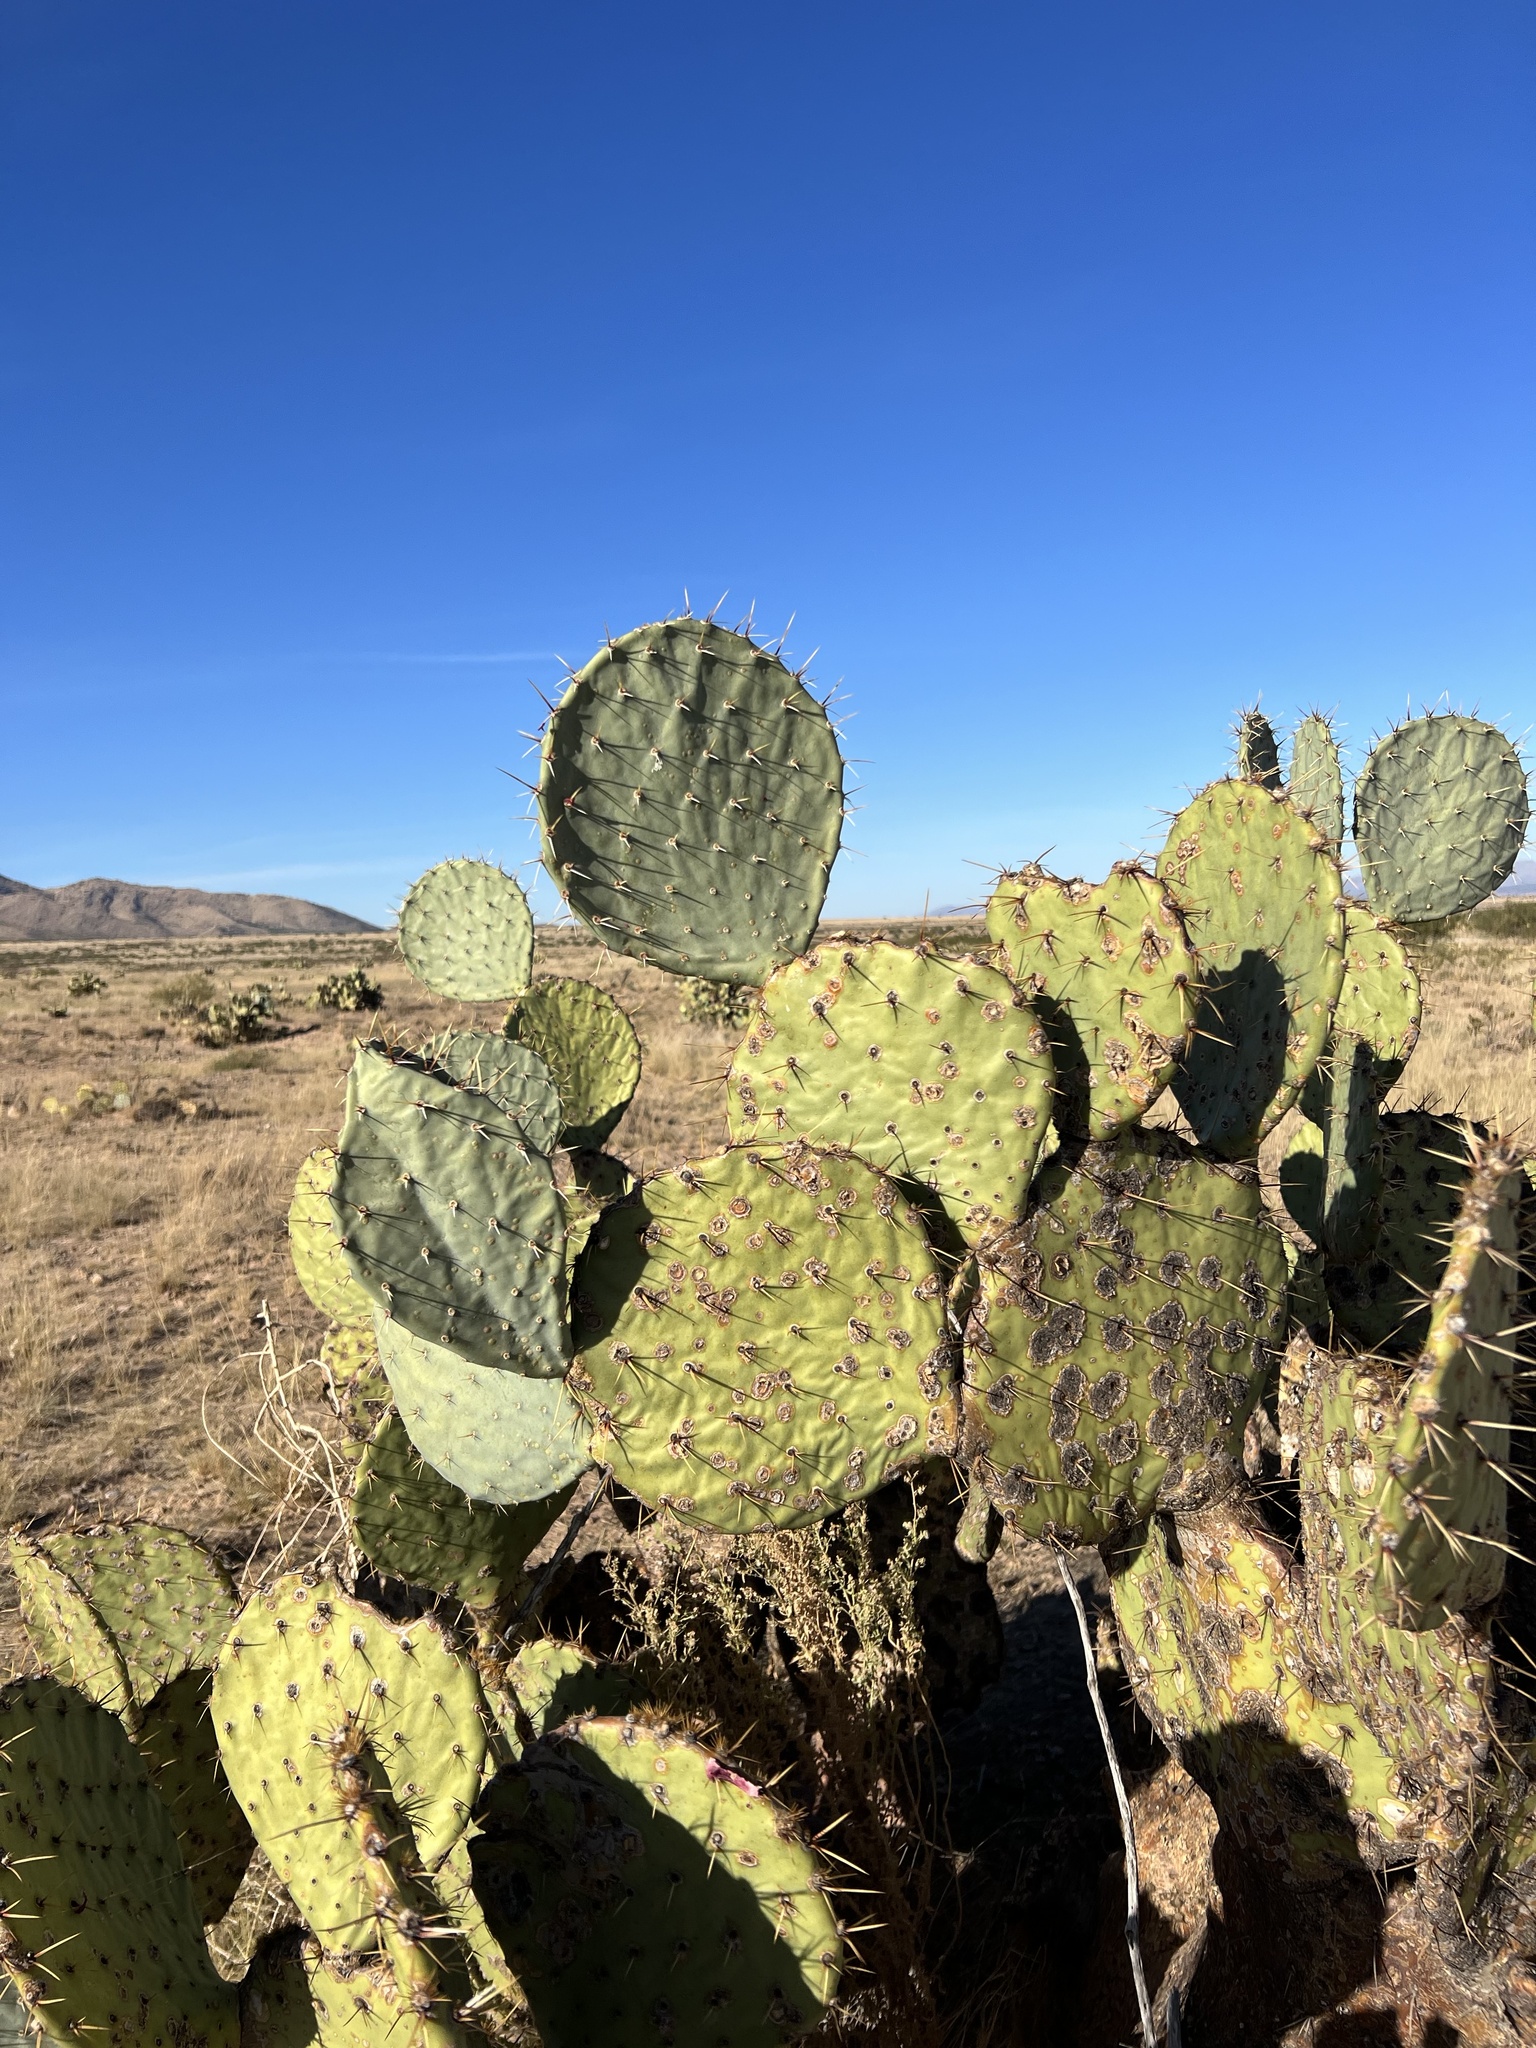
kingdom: Plantae
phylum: Tracheophyta
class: Magnoliopsida
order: Caryophyllales
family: Cactaceae
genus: Opuntia
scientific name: Opuntia engelmannii
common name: Cactus-apple
